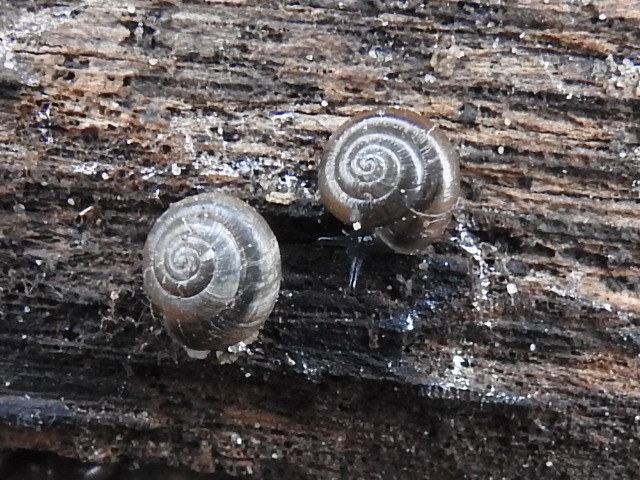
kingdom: Animalia
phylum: Mollusca
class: Gastropoda
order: Stylommatophora
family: Gastrodontidae
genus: Zonitoides
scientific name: Zonitoides arboreus
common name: Quick gloss
